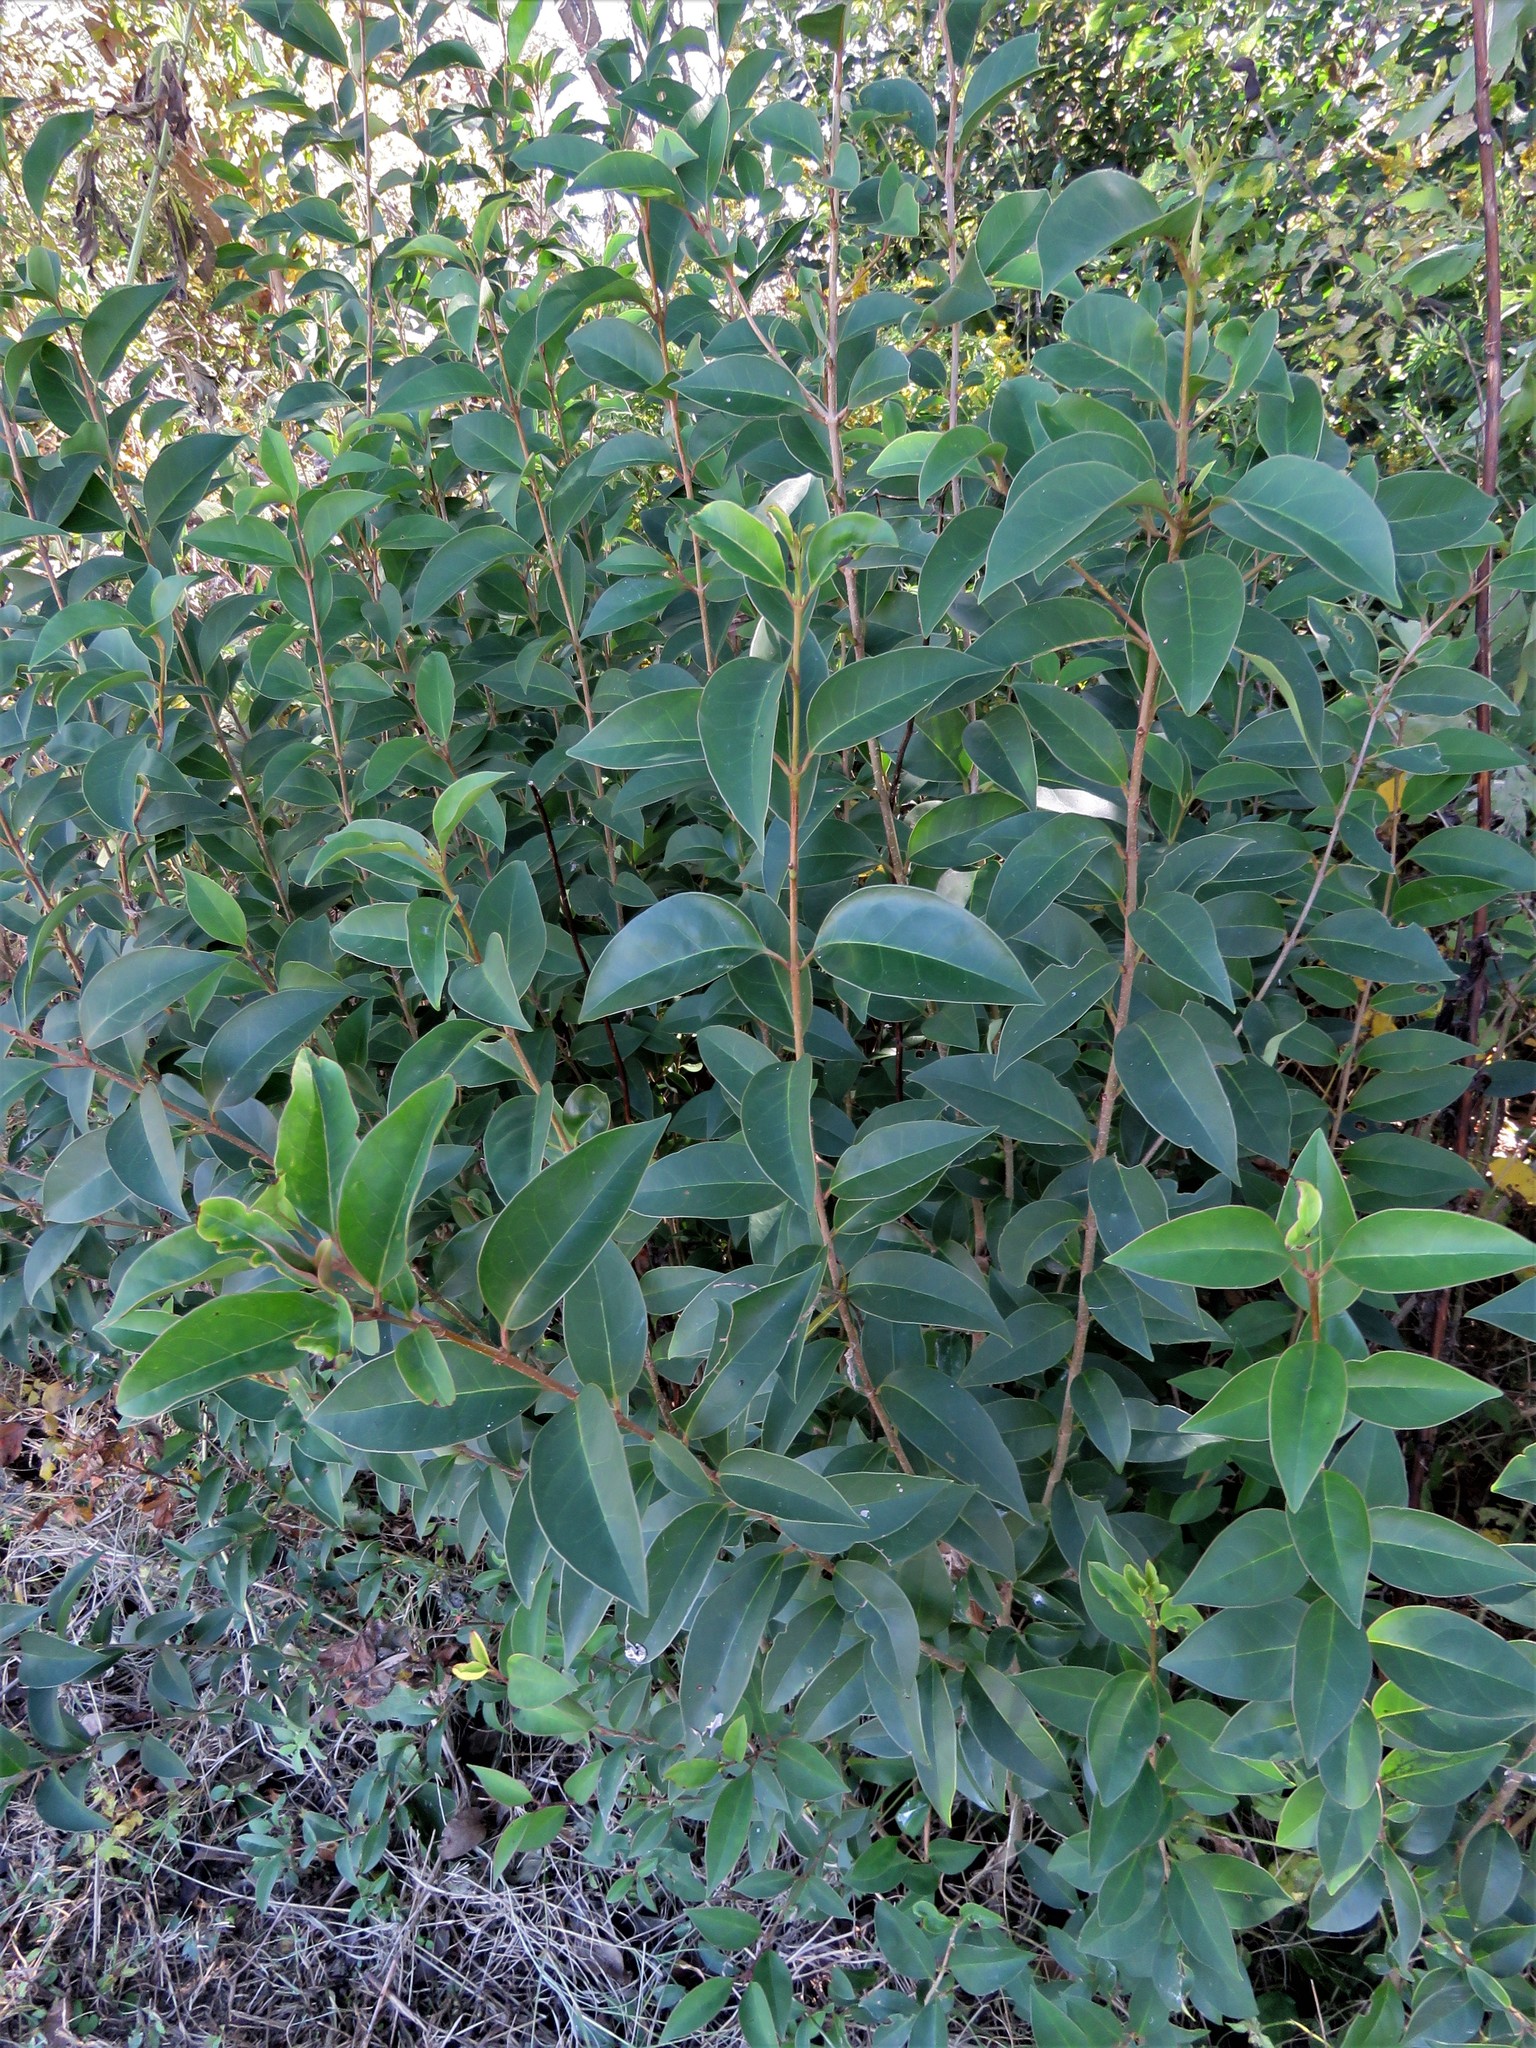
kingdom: Plantae
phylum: Tracheophyta
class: Magnoliopsida
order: Lamiales
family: Oleaceae
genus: Ligustrum
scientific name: Ligustrum lucidum
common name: Glossy privet
